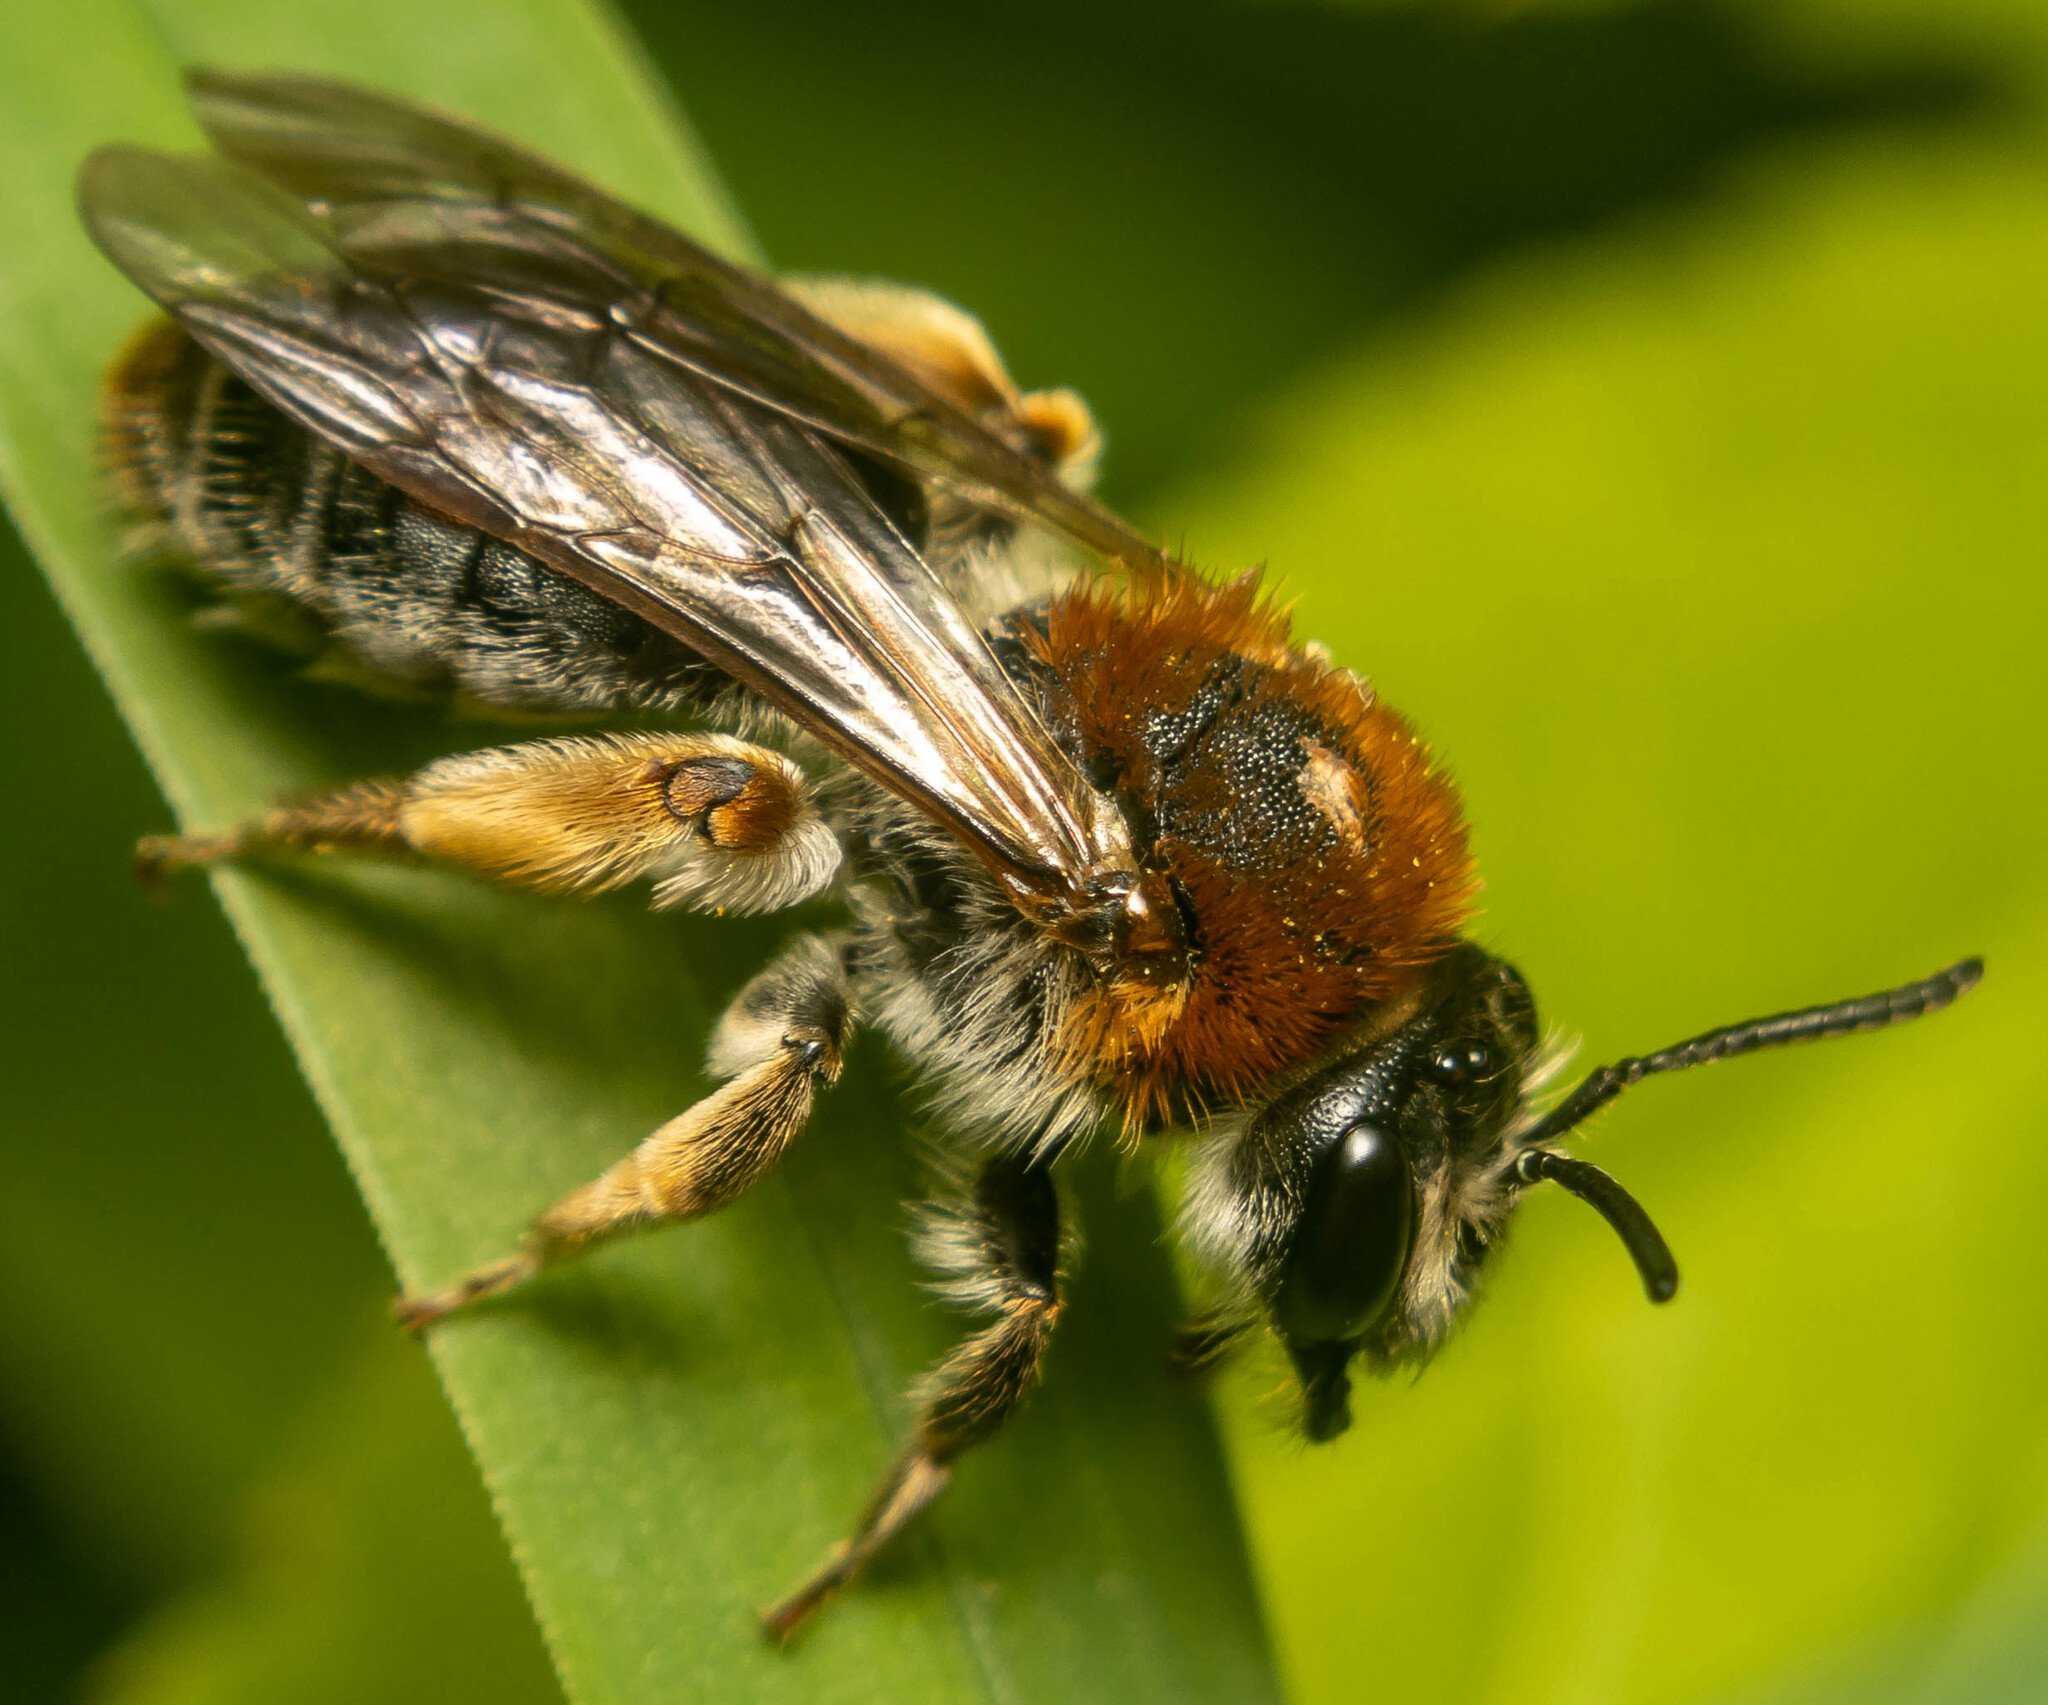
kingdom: Animalia
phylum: Arthropoda
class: Insecta
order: Hymenoptera
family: Andrenidae
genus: Andrena
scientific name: Andrena haemorrhoa
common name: Early mining bee
